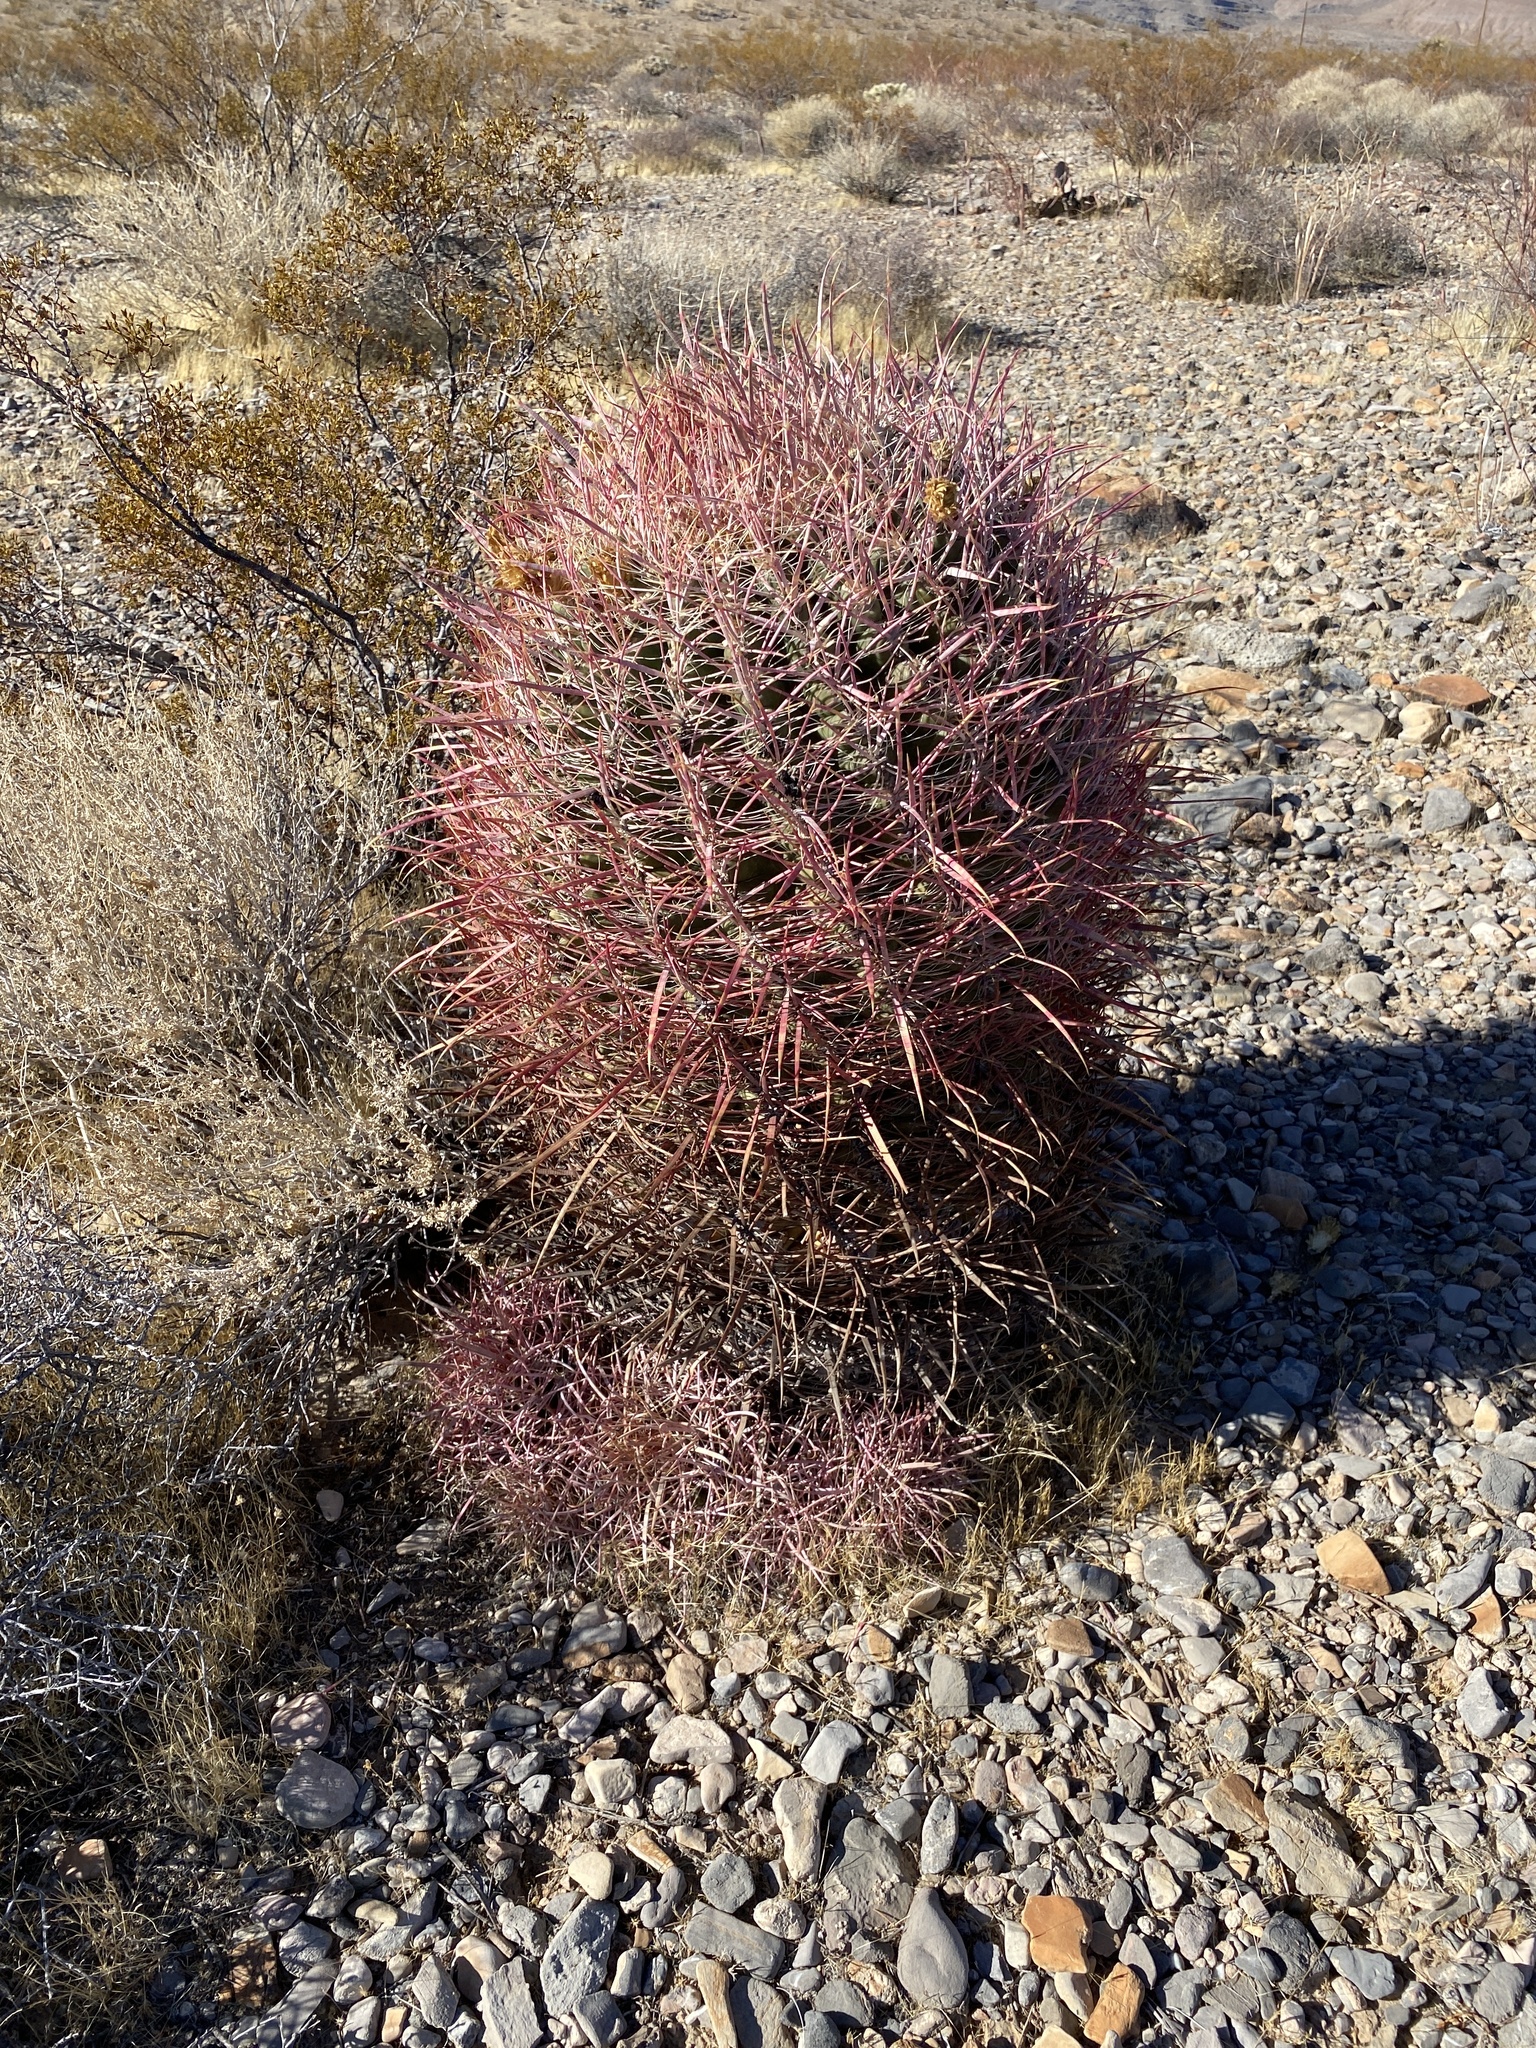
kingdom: Plantae
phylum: Tracheophyta
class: Magnoliopsida
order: Caryophyllales
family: Cactaceae
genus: Ferocactus
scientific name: Ferocactus cylindraceus
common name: California barrel cactus
